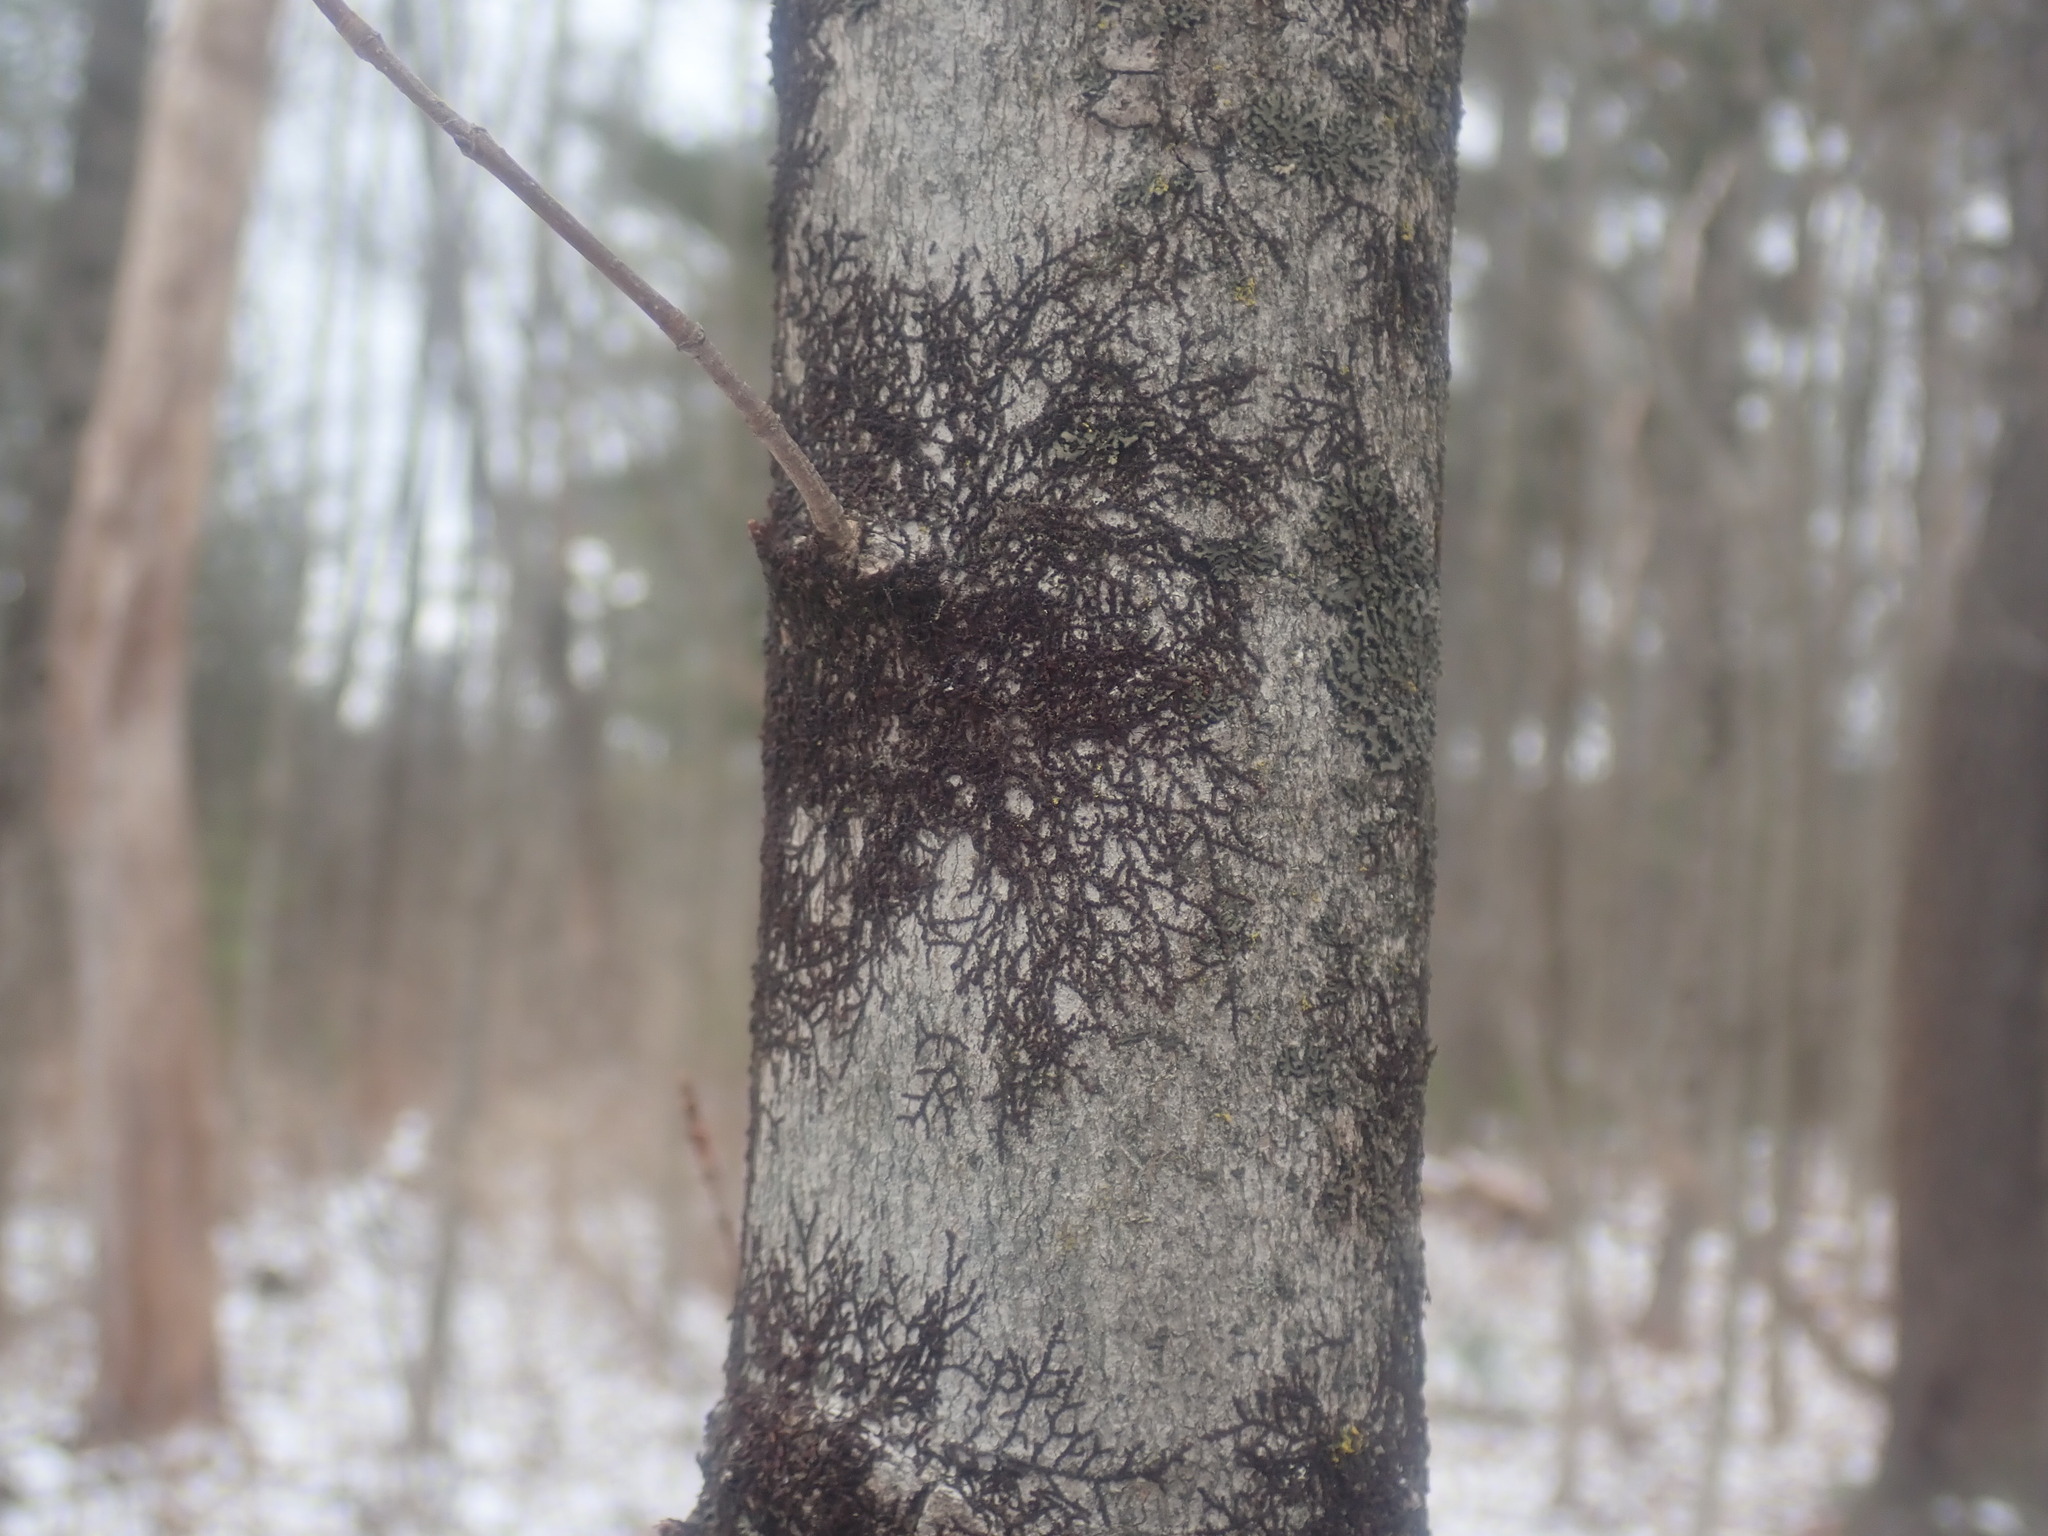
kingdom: Plantae
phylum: Marchantiophyta
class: Jungermanniopsida
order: Porellales
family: Frullaniaceae
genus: Frullania
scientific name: Frullania
